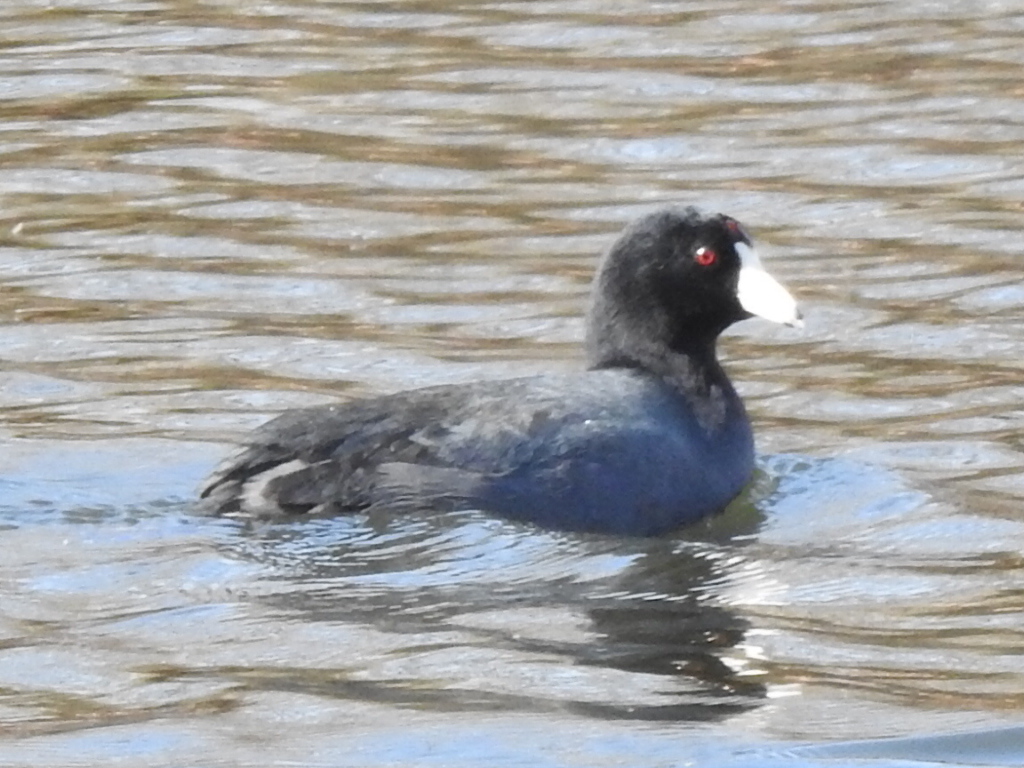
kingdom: Animalia
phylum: Chordata
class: Aves
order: Gruiformes
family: Rallidae
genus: Fulica
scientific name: Fulica americana
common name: American coot
